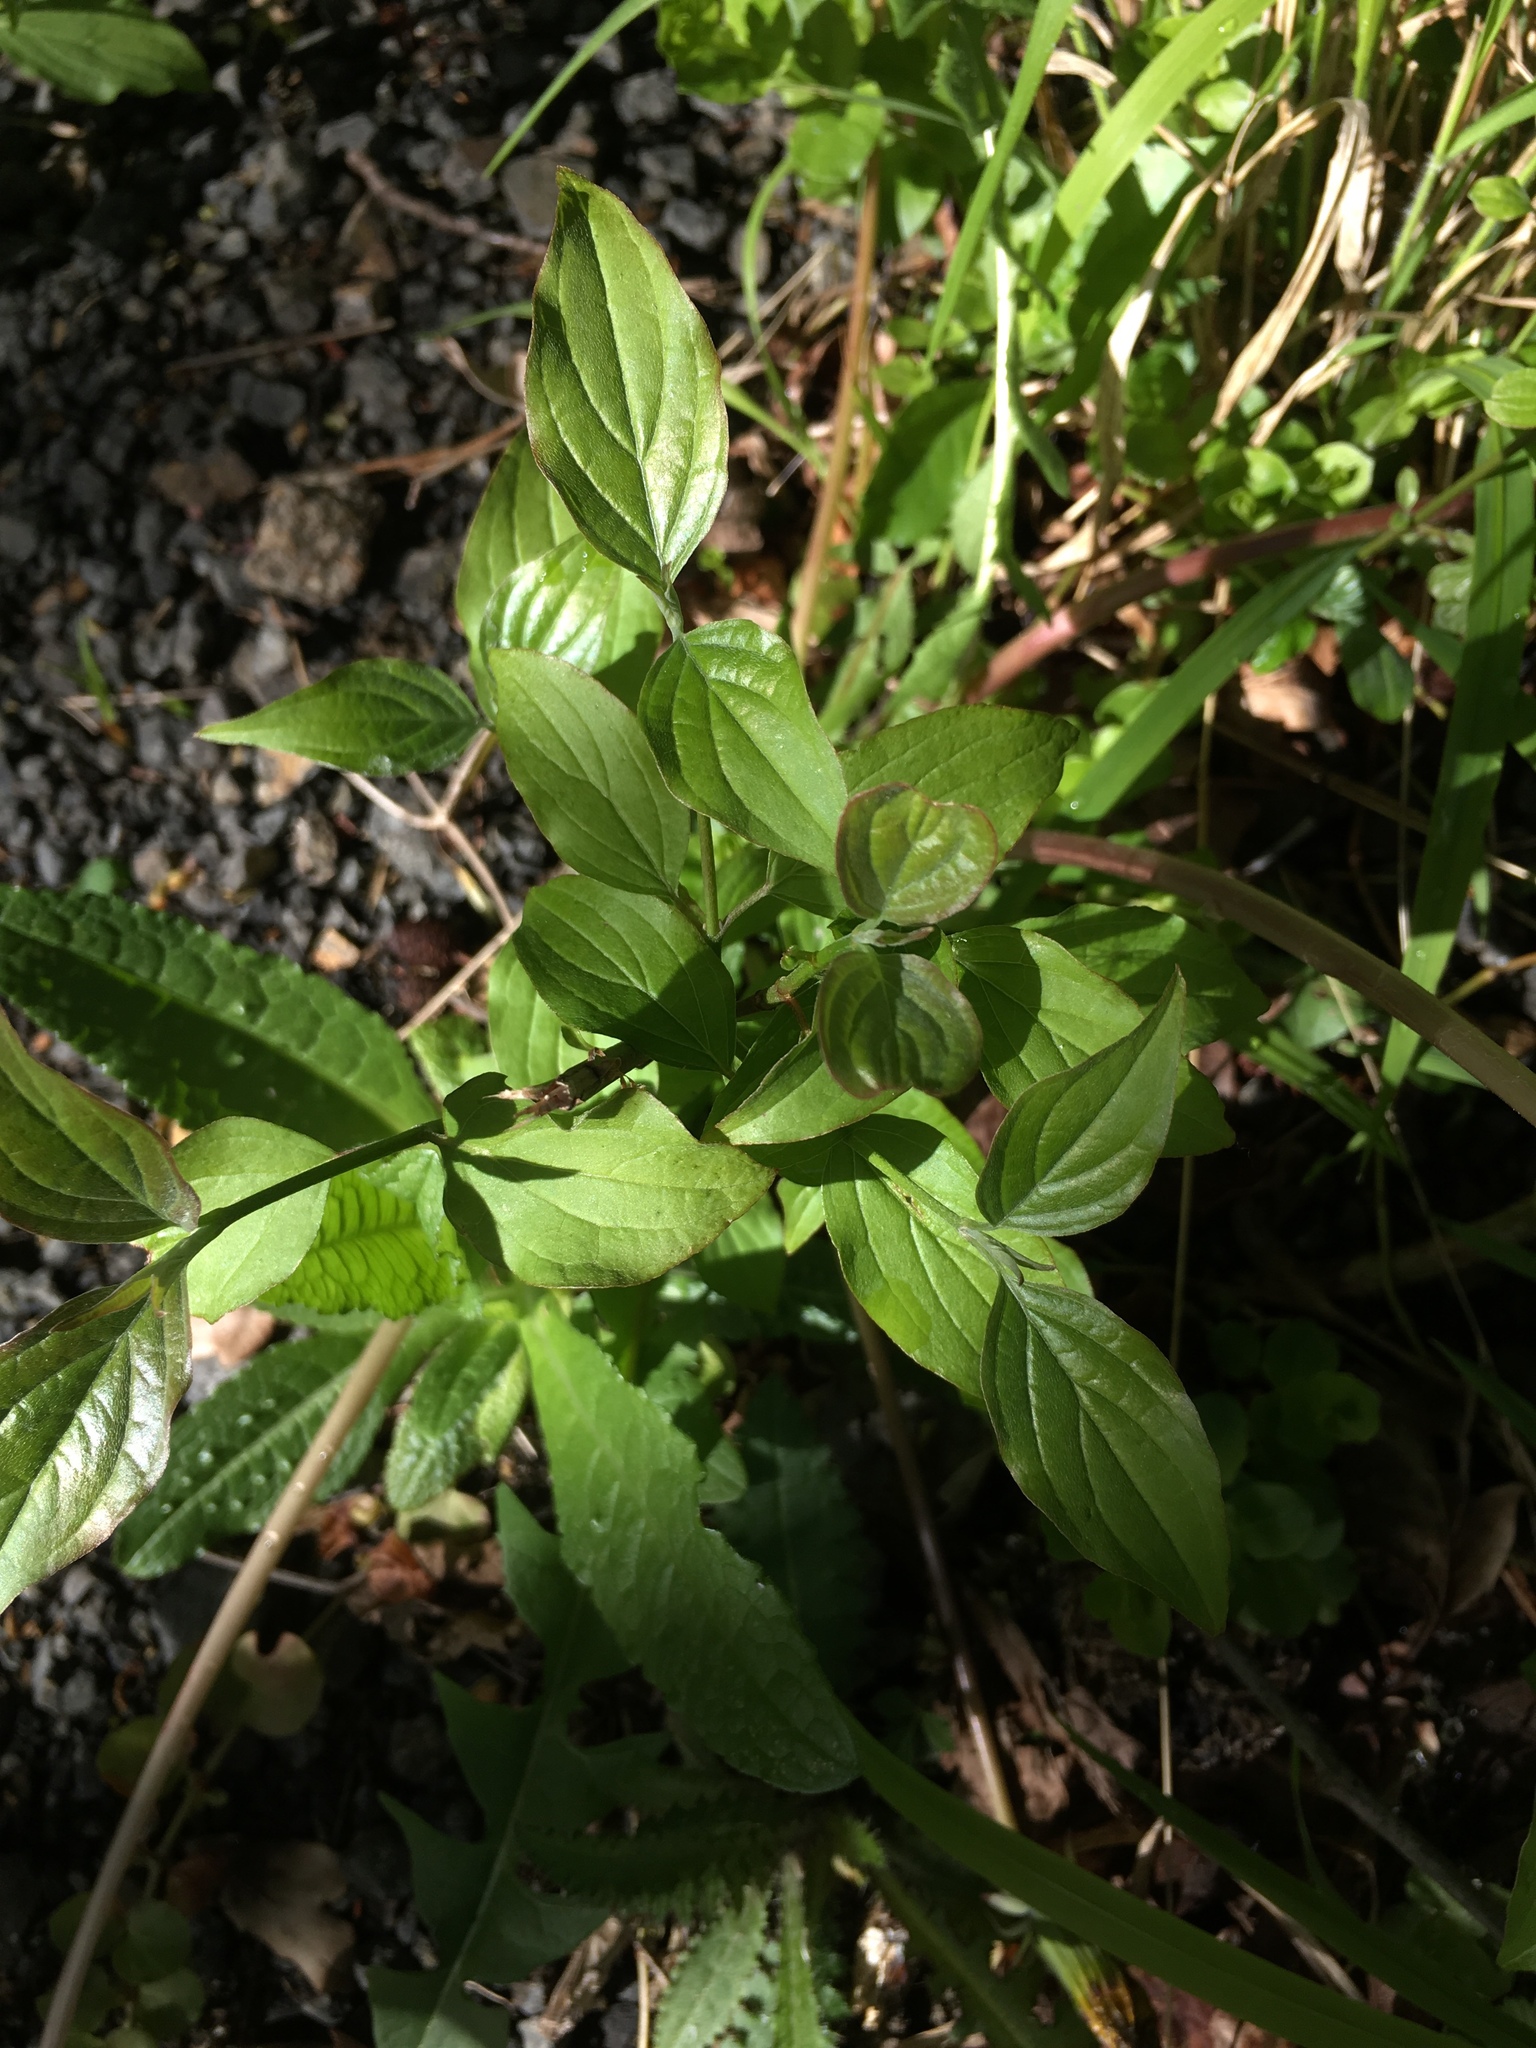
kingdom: Plantae
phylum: Tracheophyta
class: Magnoliopsida
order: Cornales
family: Cornaceae
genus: Cornus
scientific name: Cornus sanguinea
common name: Dogwood
